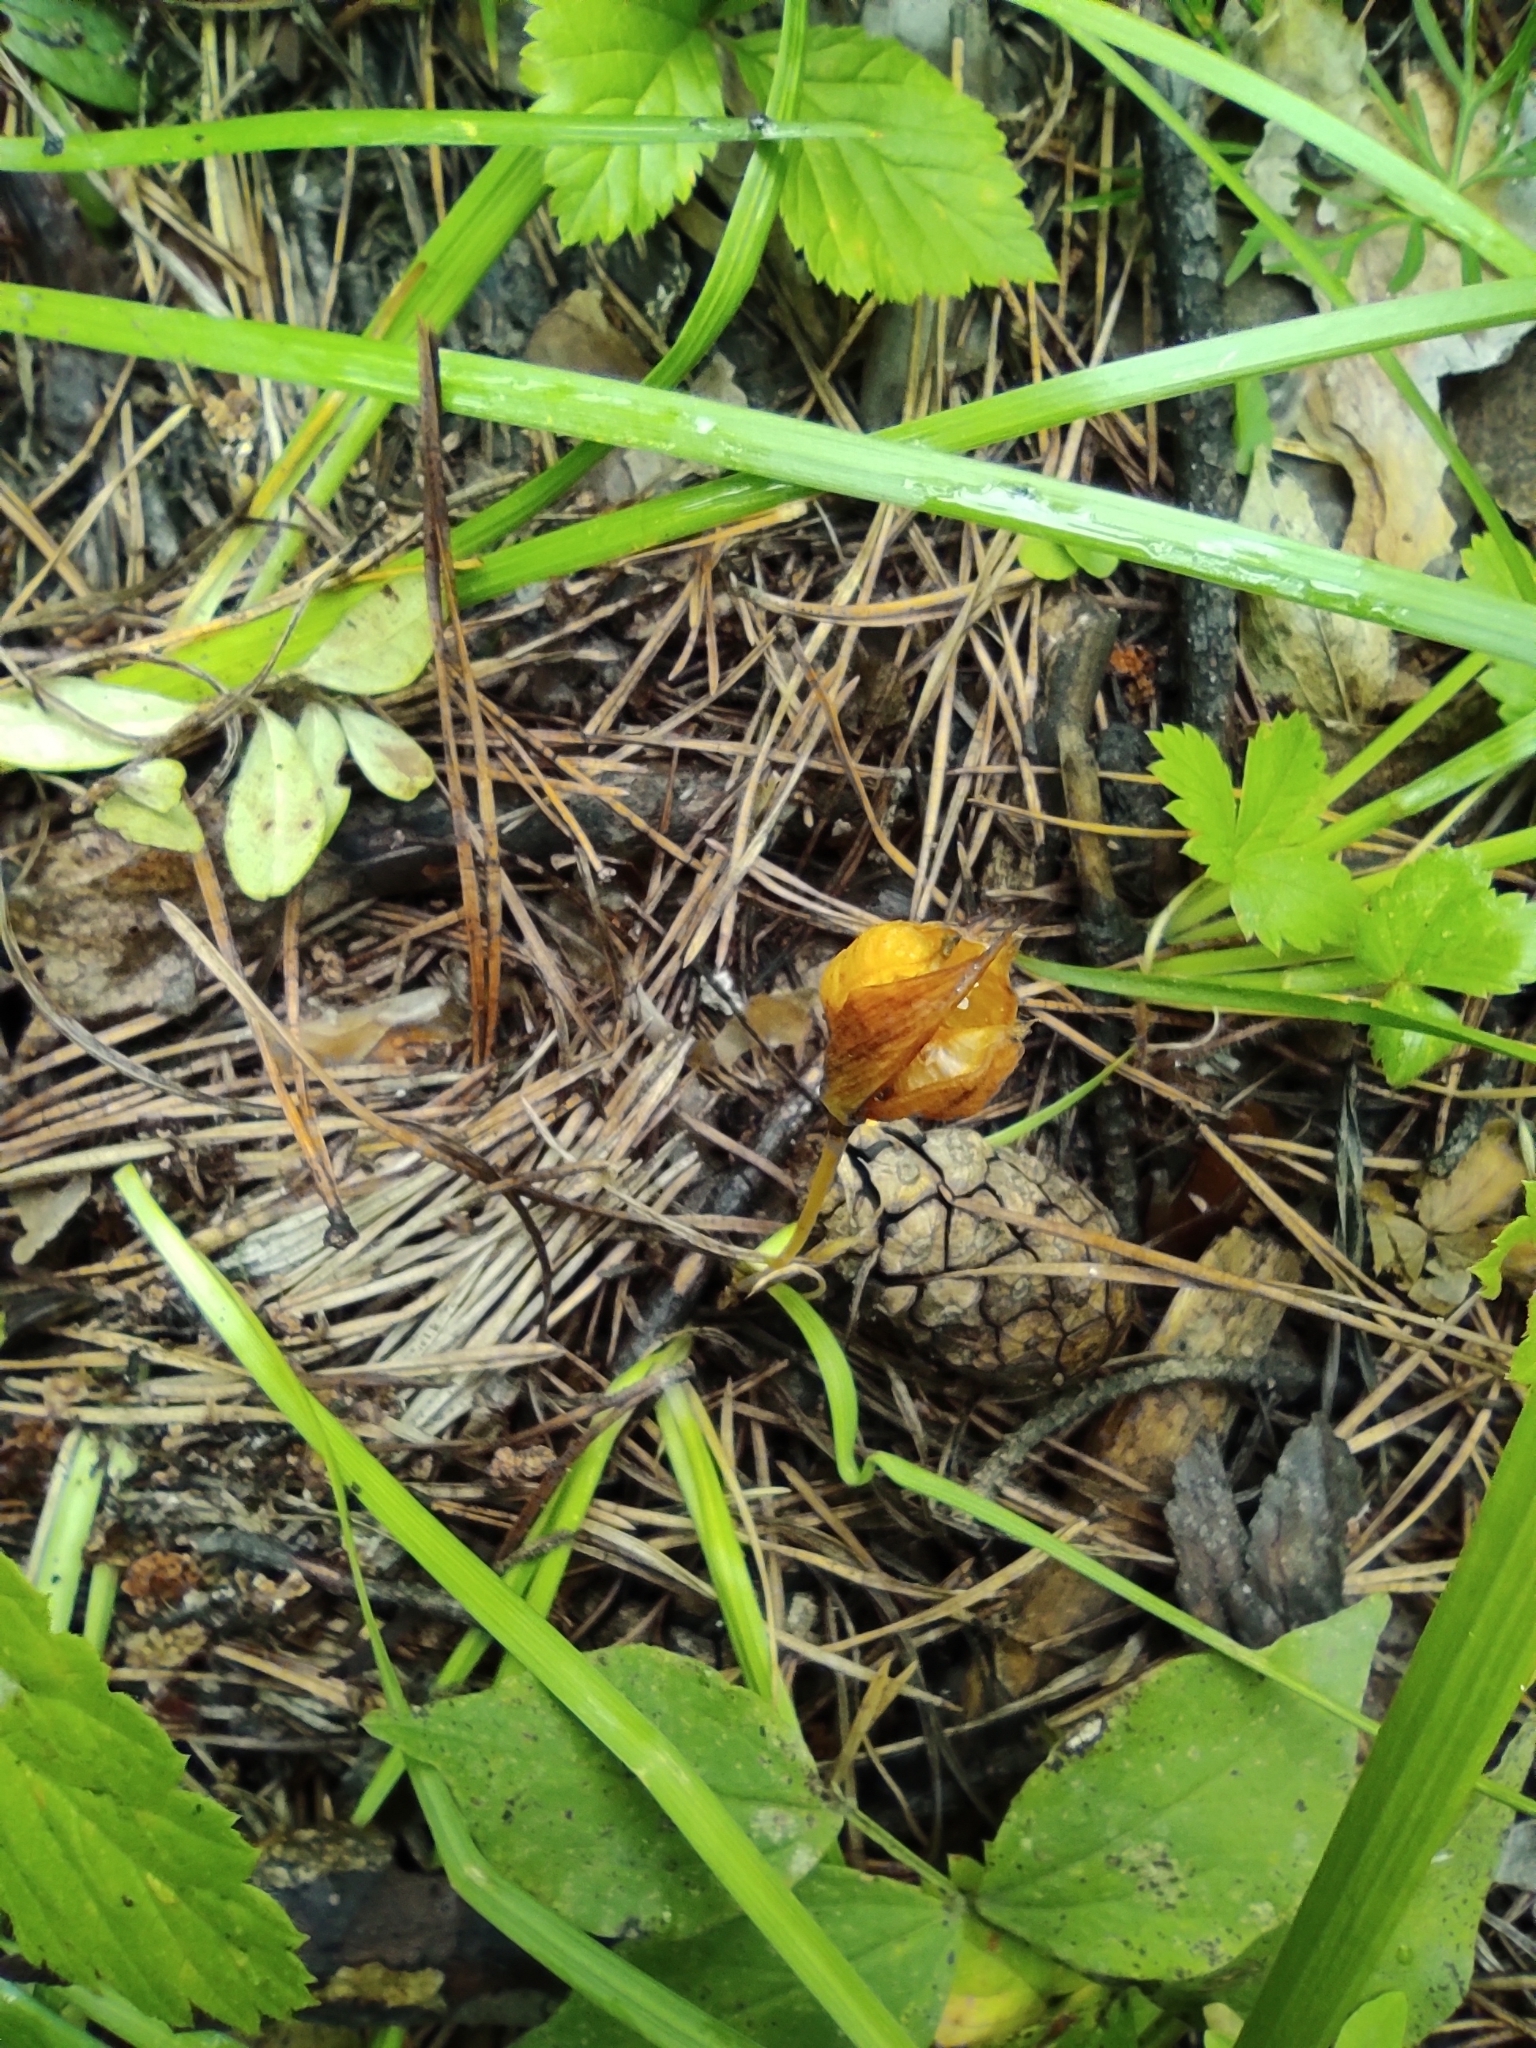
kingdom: Plantae
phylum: Tracheophyta
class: Liliopsida
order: Asparagales
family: Iridaceae
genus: Iris
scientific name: Iris ruthenica
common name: Purple-bract iris
